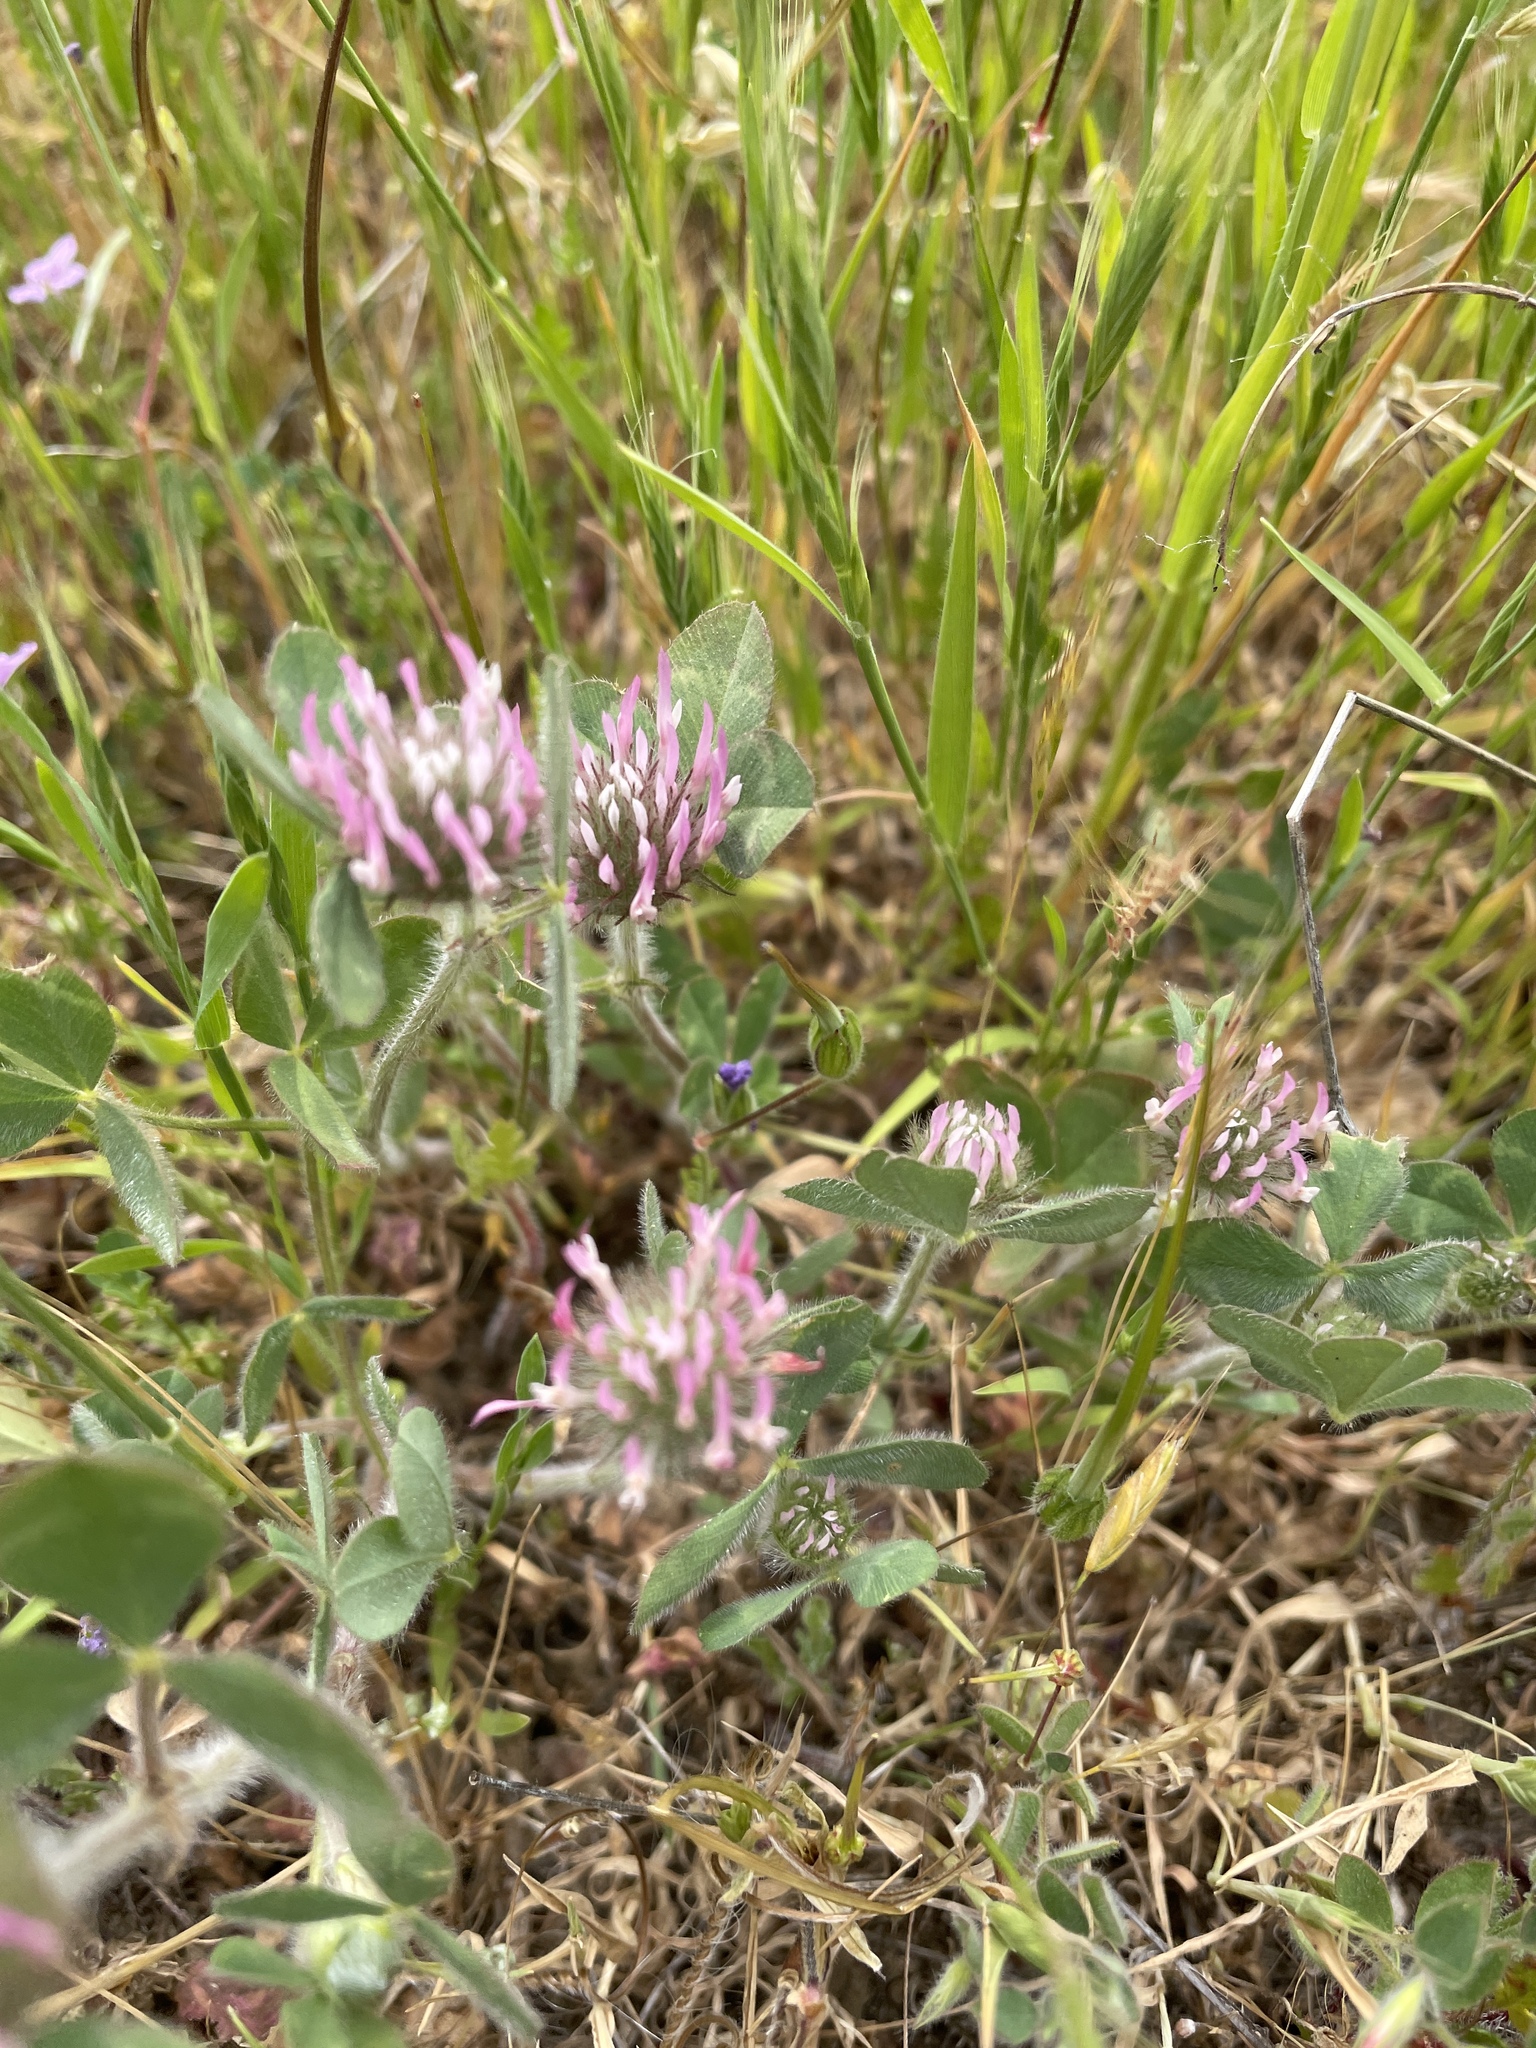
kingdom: Plantae
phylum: Tracheophyta
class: Magnoliopsida
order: Fabales
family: Fabaceae
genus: Trifolium
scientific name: Trifolium hirtum
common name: Rose clover
